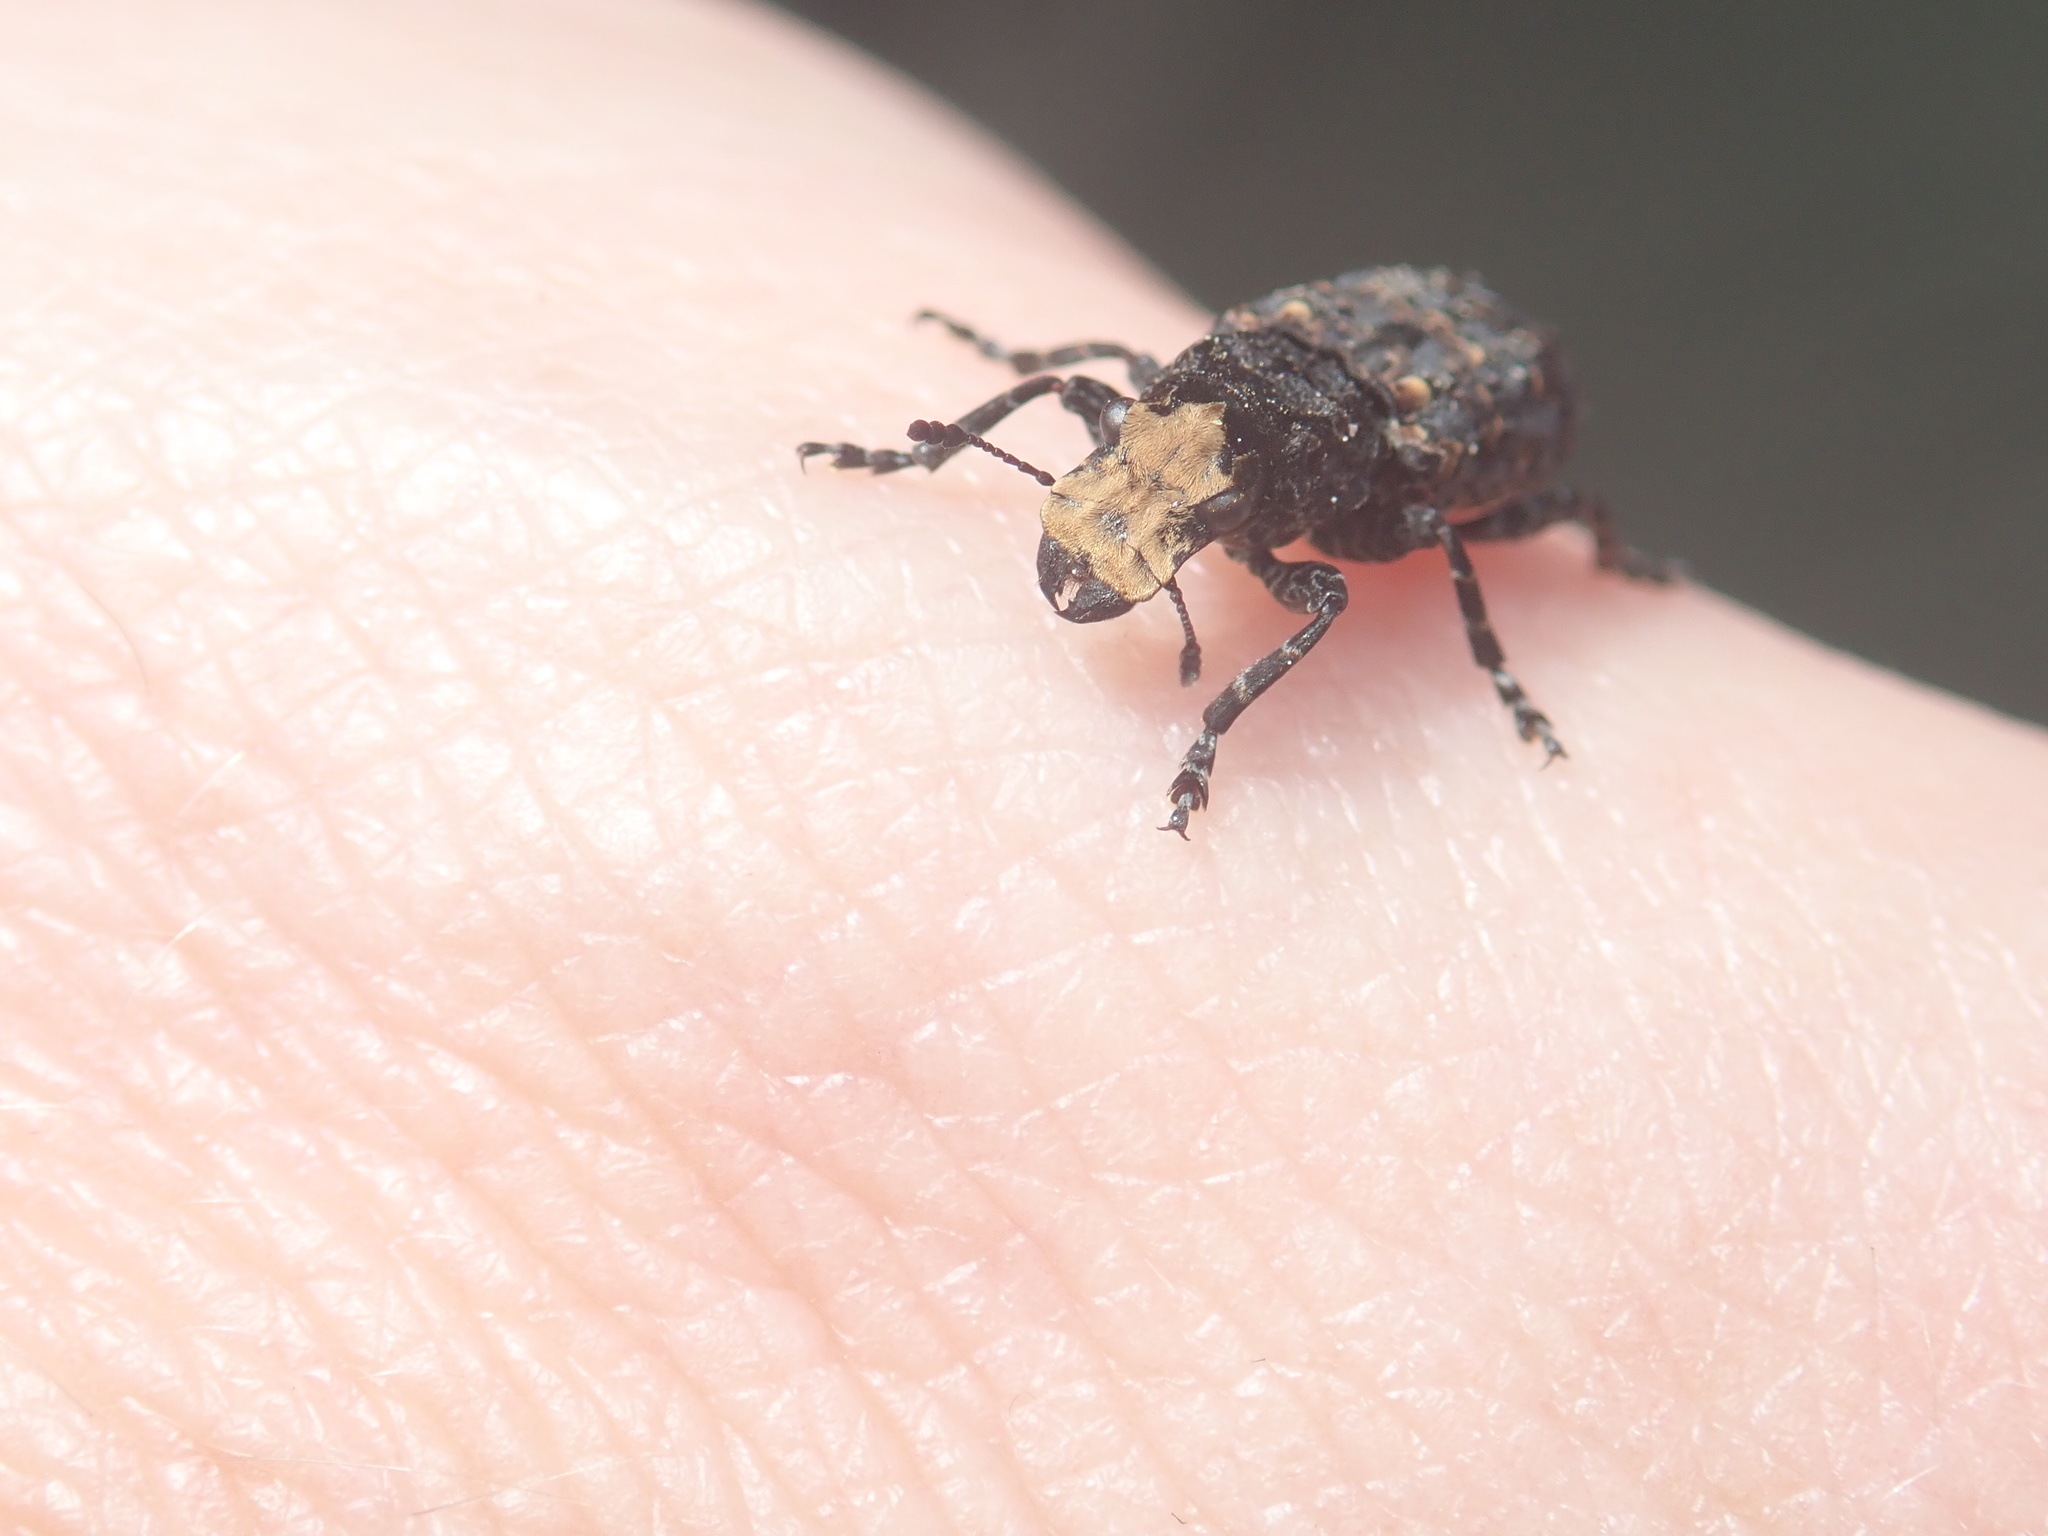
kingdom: Animalia
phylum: Arthropoda
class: Insecta
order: Coleoptera
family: Anthribidae
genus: Platyrhinus
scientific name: Platyrhinus resinosus
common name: Cramp-ball fungus weevil
